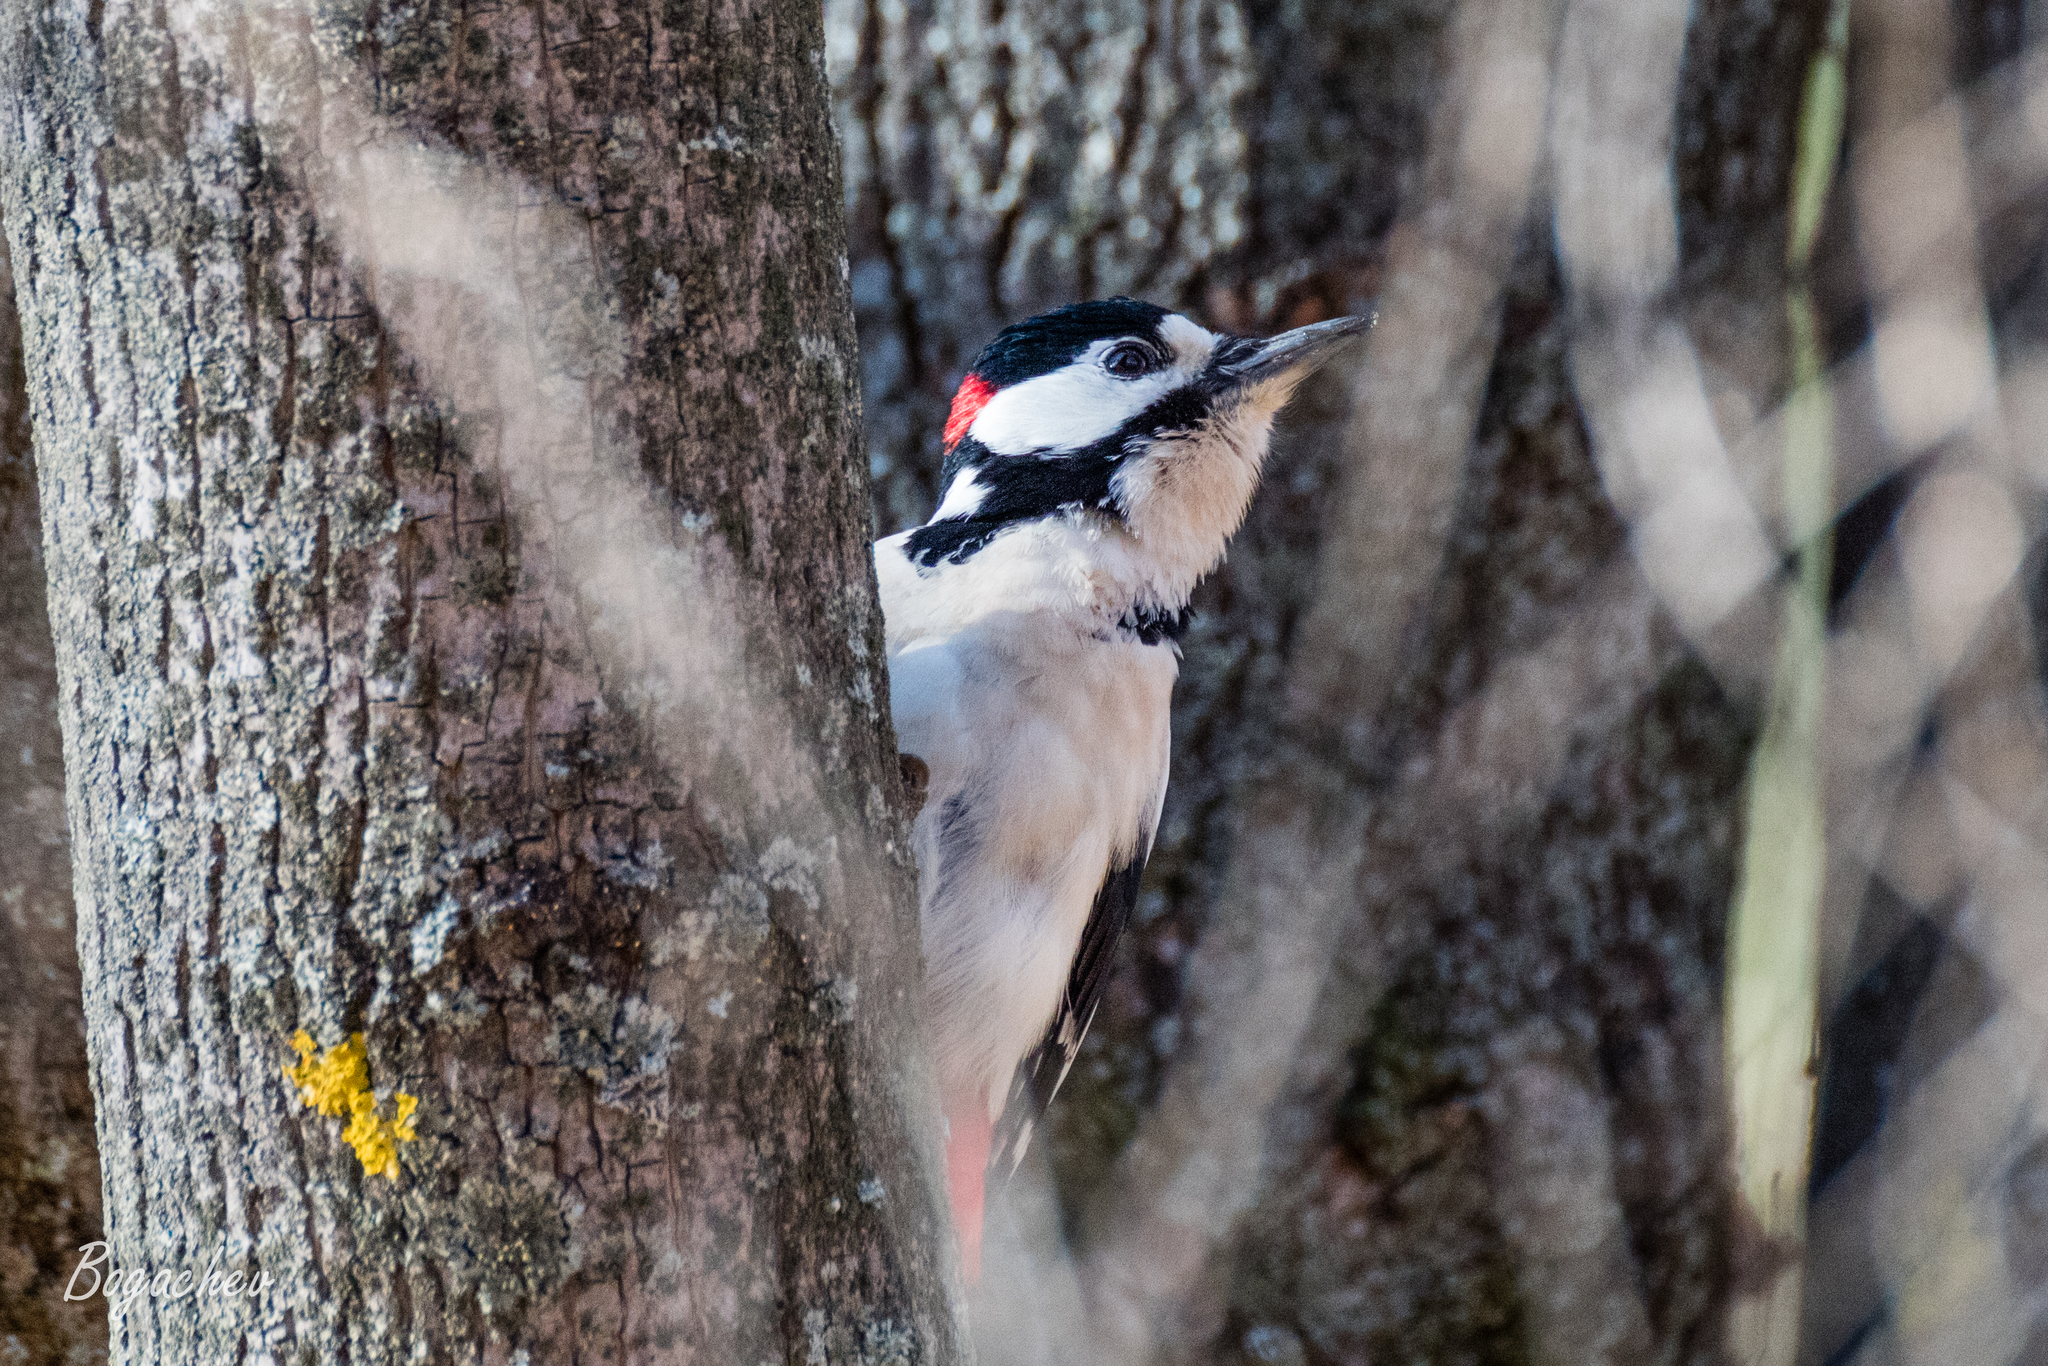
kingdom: Animalia
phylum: Chordata
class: Aves
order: Piciformes
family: Picidae
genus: Dendrocopos
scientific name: Dendrocopos major
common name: Great spotted woodpecker
